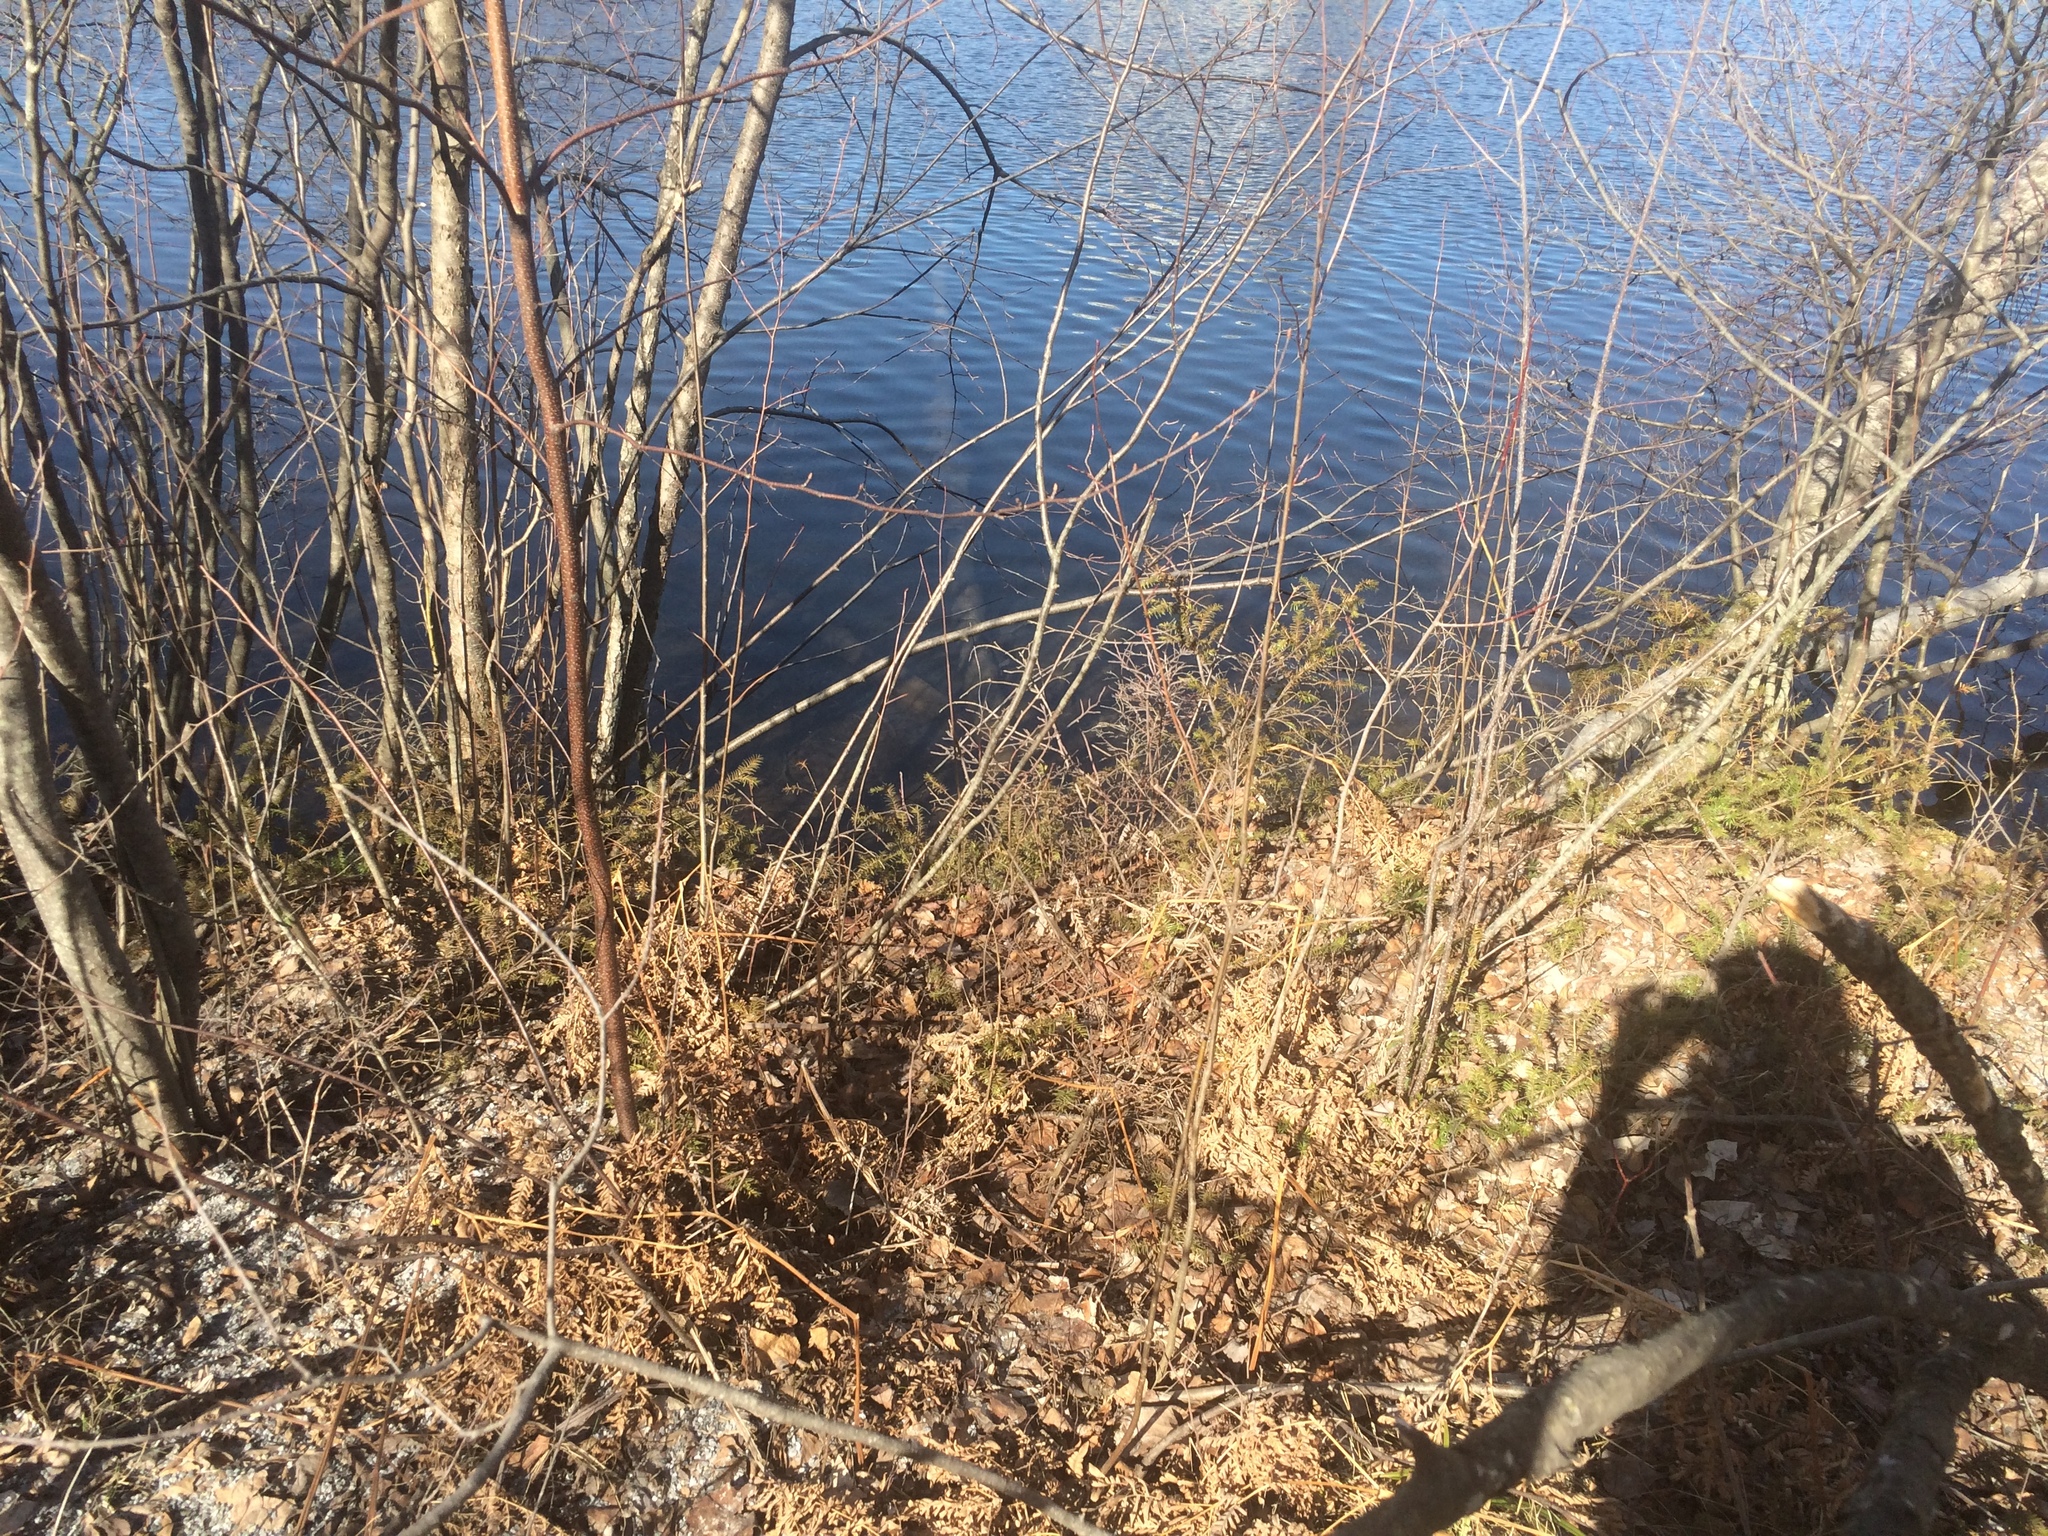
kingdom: Plantae
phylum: Tracheophyta
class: Pinopsida
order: Pinales
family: Taxaceae
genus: Taxus
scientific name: Taxus canadensis
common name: American yew
